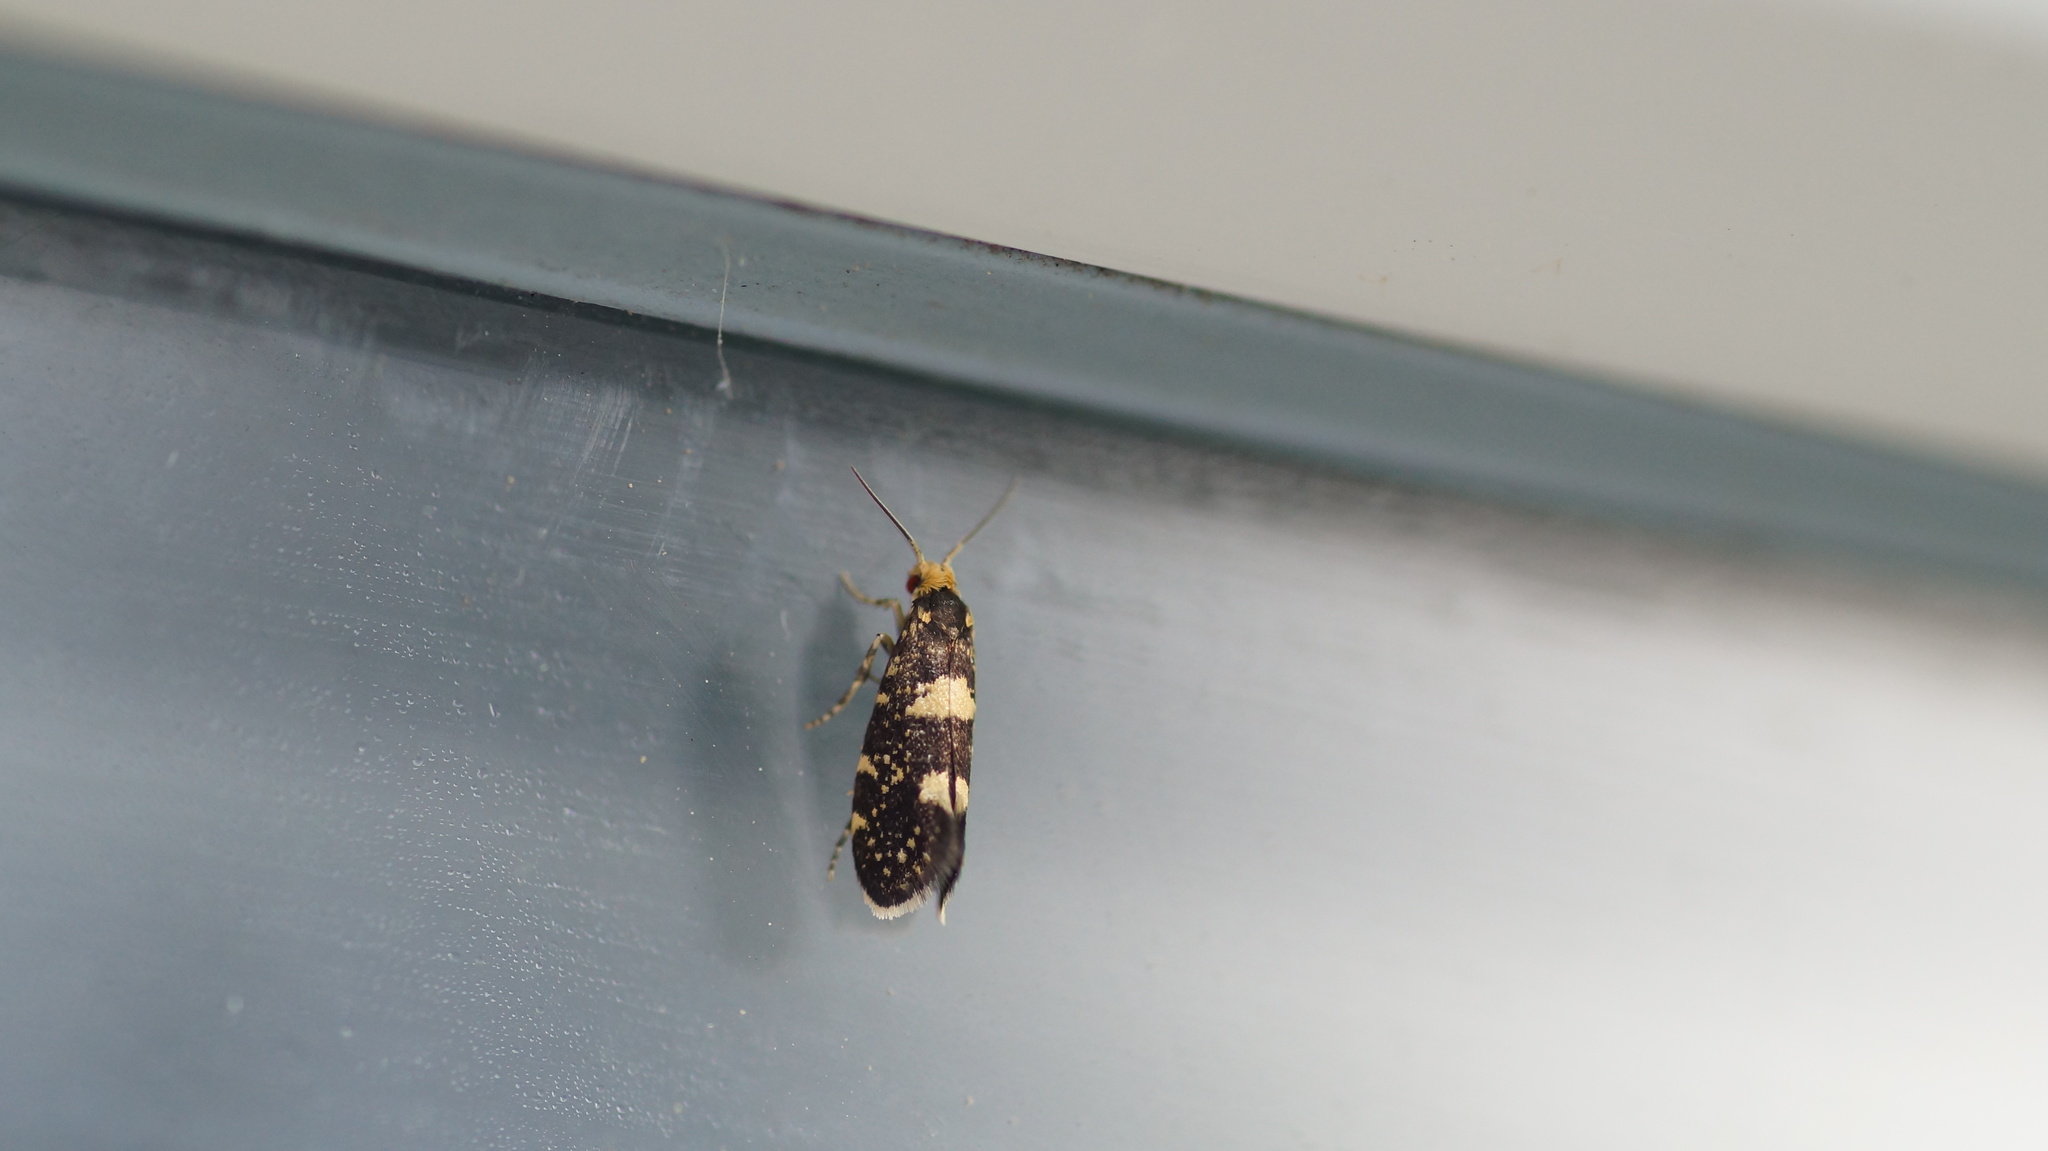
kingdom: Animalia
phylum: Arthropoda
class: Insecta
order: Lepidoptera
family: Incurvariidae
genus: Incurvaria
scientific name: Incurvaria rubiella
